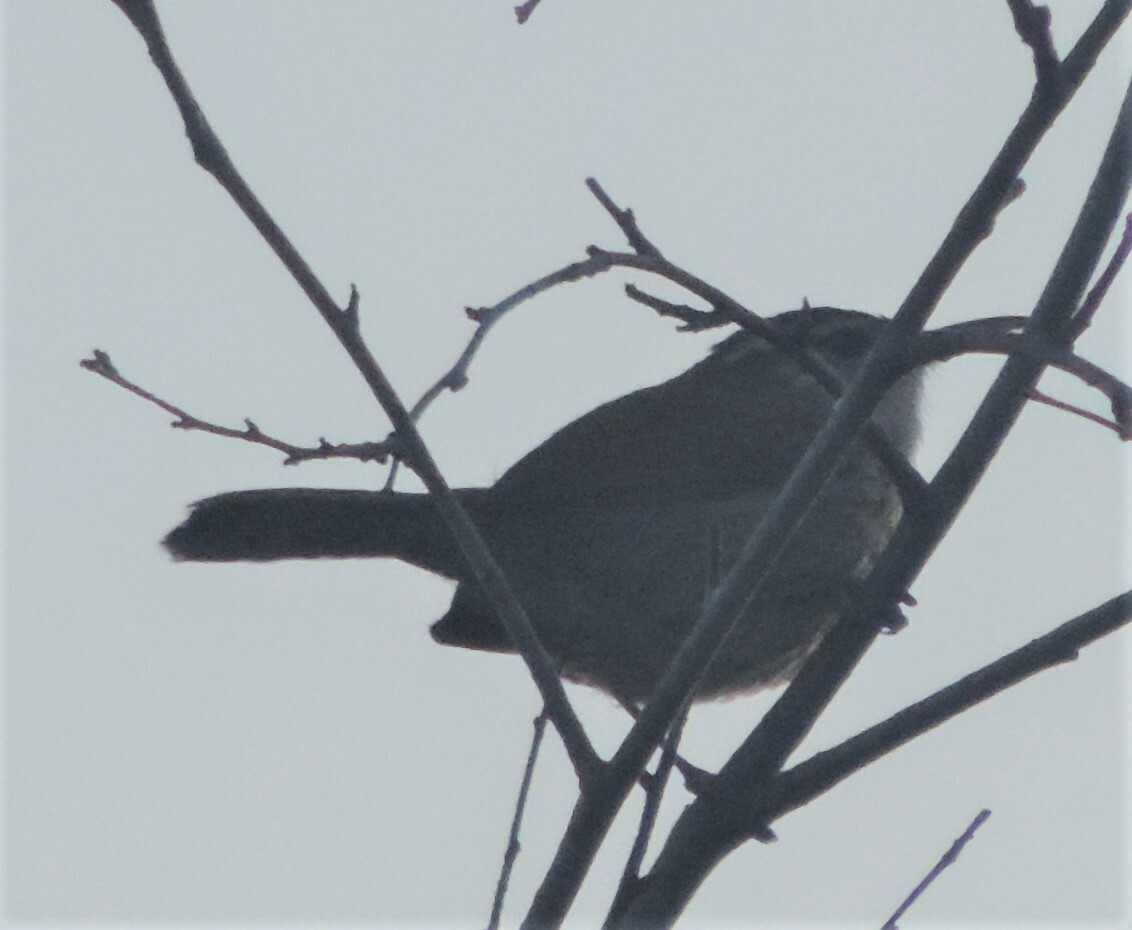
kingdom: Animalia
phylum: Chordata
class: Aves
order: Passeriformes
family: Troglodytidae
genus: Thryomanes
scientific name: Thryomanes bewickii
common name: Bewick's wren
